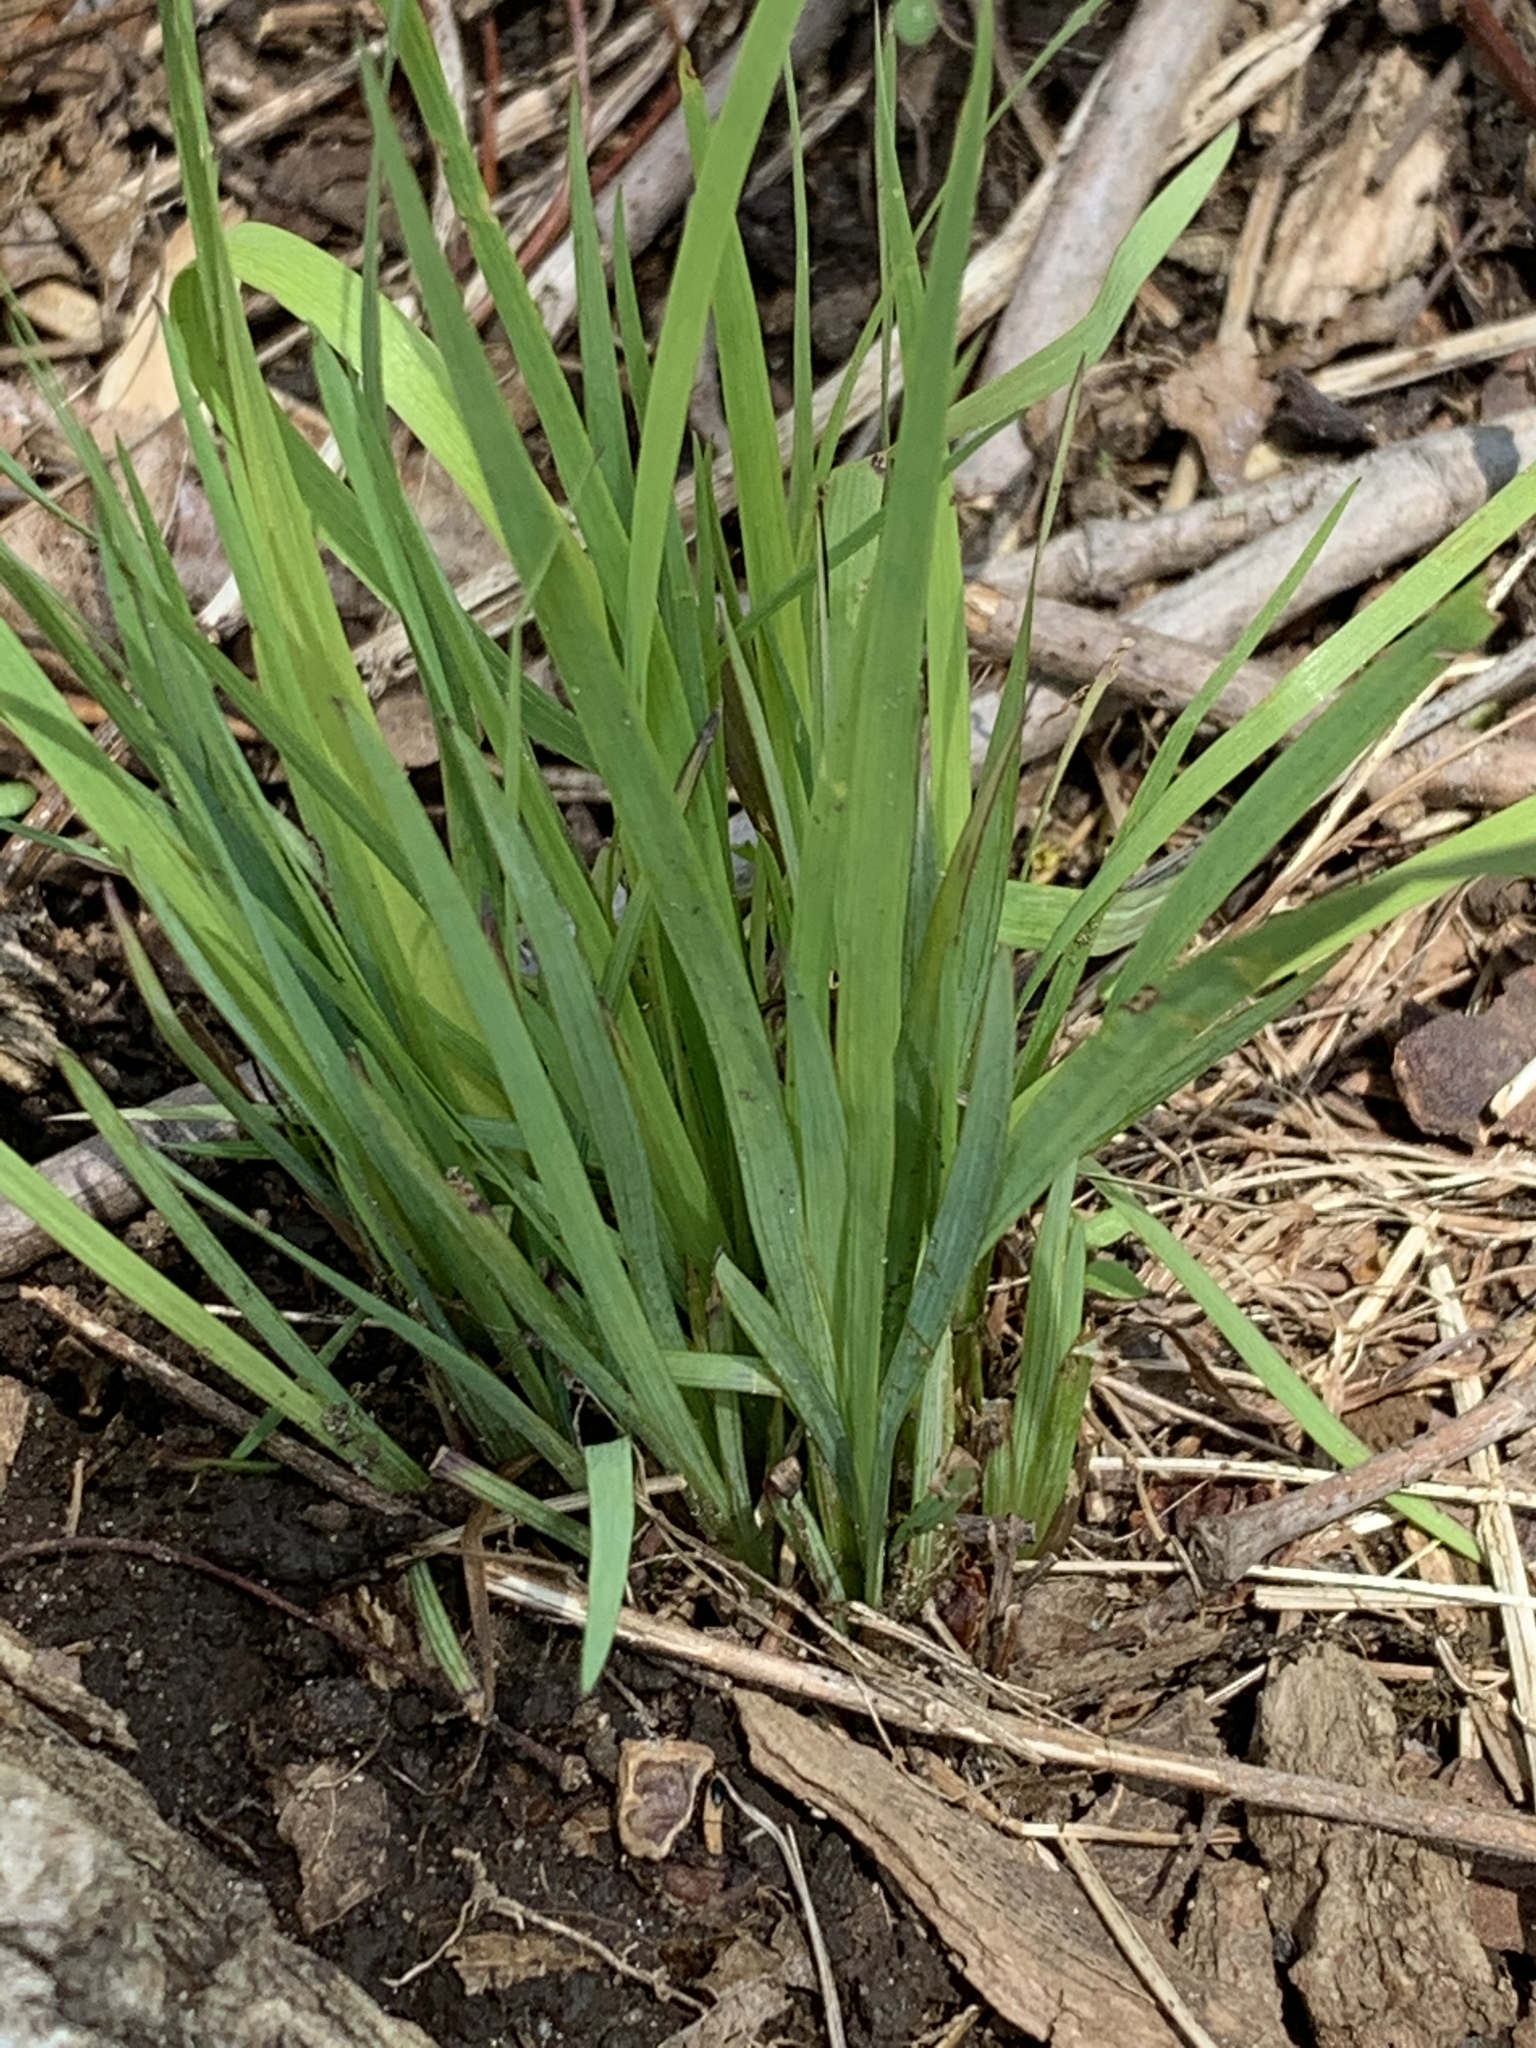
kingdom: Plantae
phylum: Tracheophyta
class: Liliopsida
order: Asparagales
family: Iridaceae
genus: Sisyrinchium
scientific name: Sisyrinchium angustifolium
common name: Narrow-leaf blue-eyed-grass
